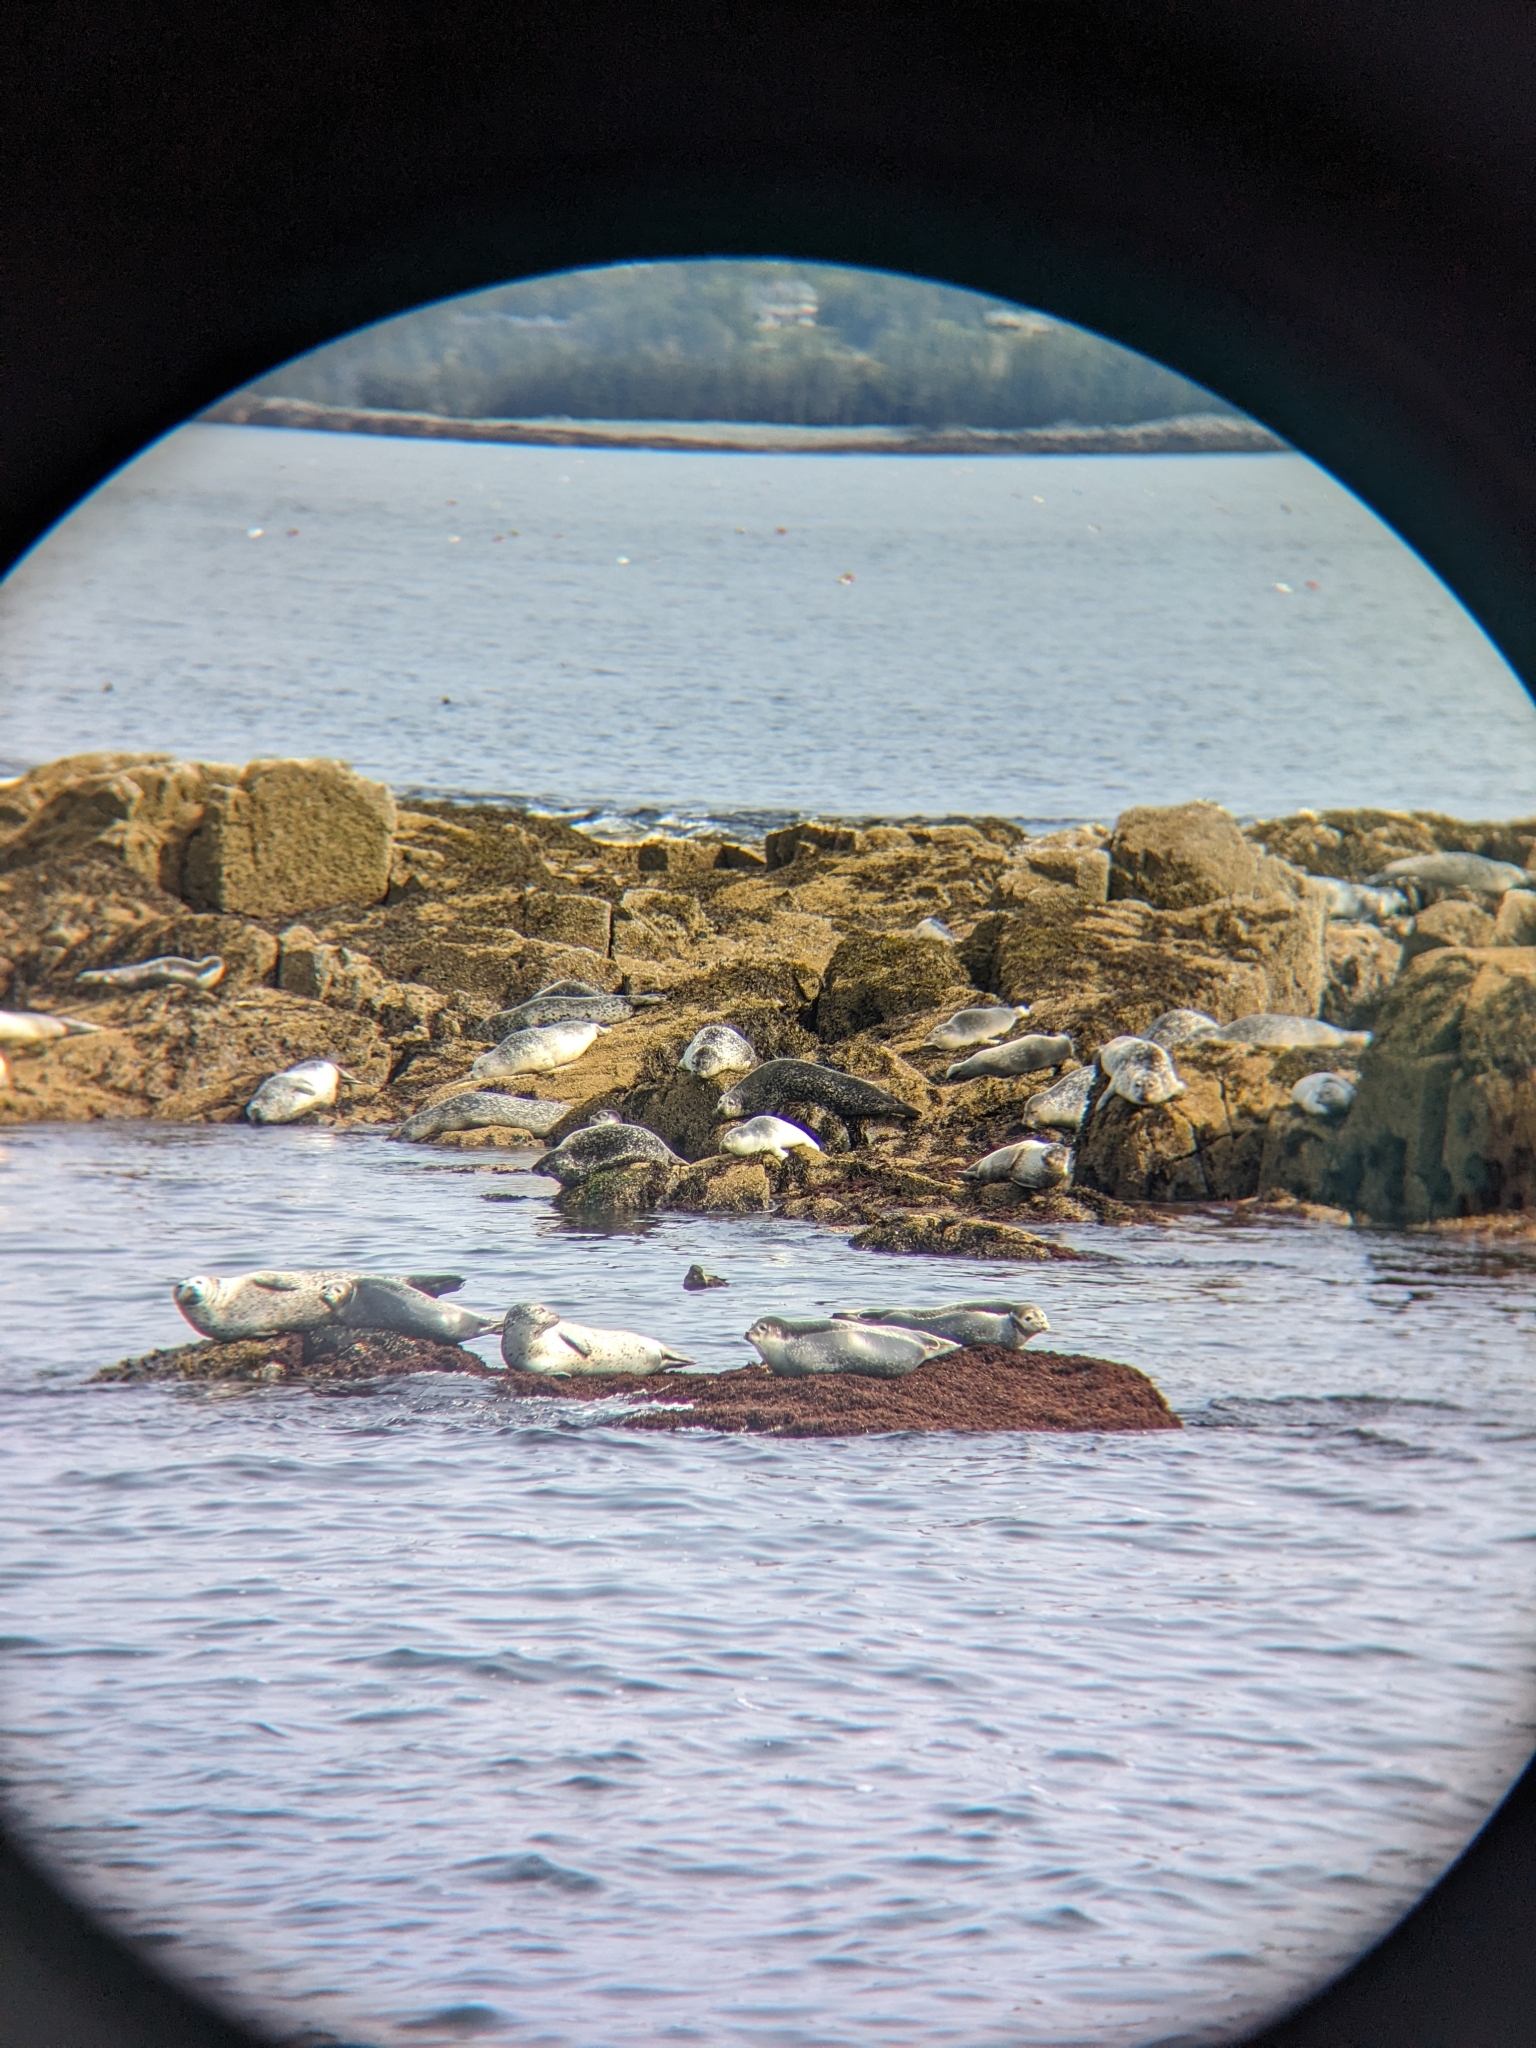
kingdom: Animalia
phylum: Chordata
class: Mammalia
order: Carnivora
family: Phocidae
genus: Phoca
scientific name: Phoca vitulina
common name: Harbor seal
